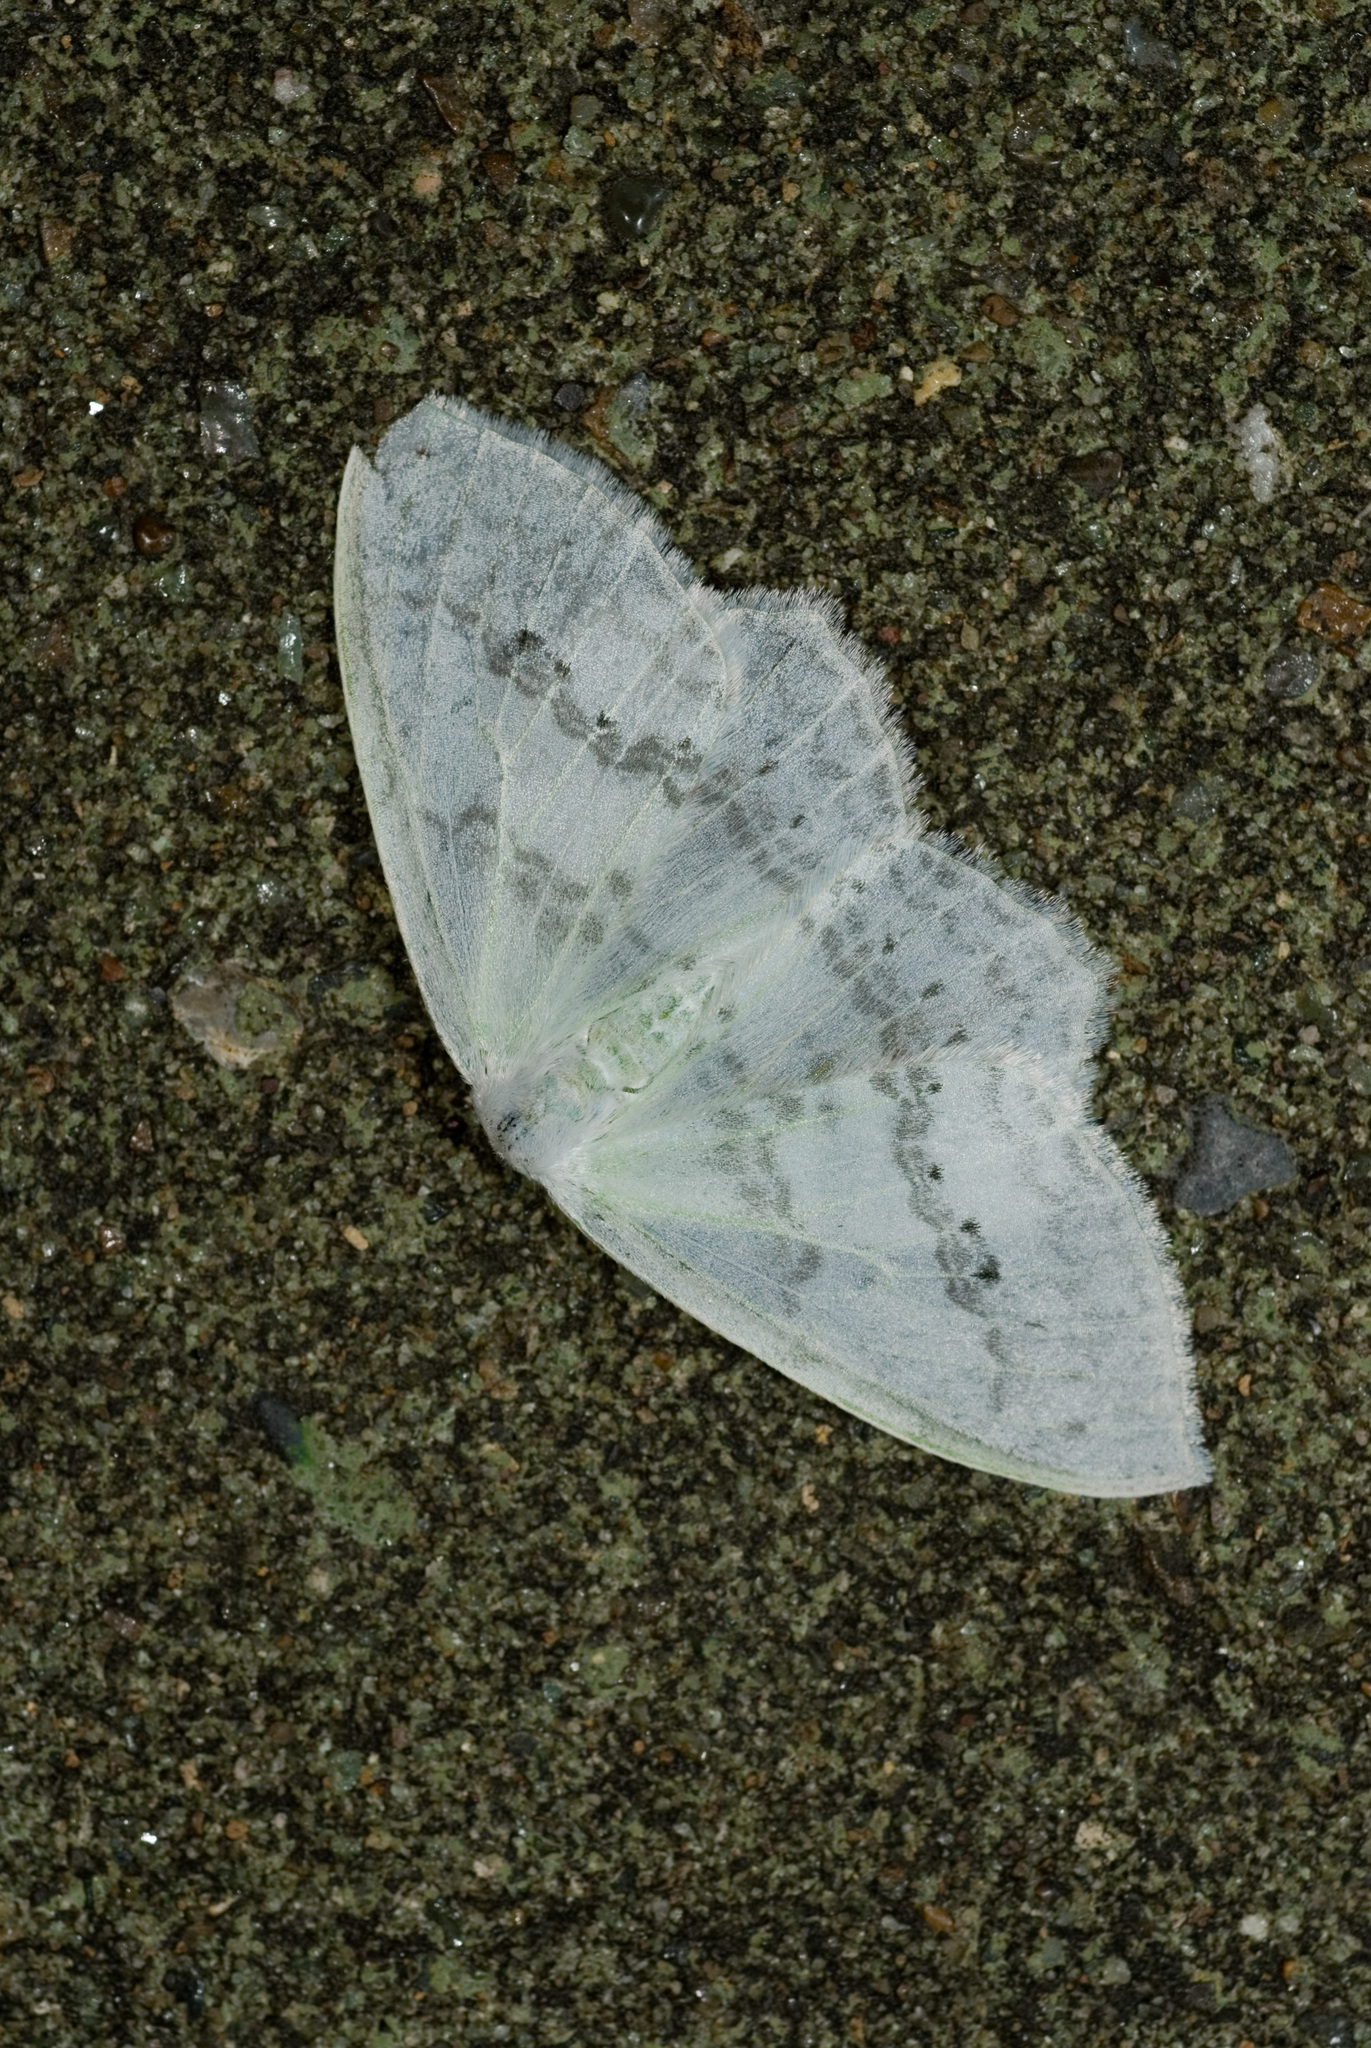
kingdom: Animalia
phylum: Arthropoda
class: Insecta
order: Lepidoptera
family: Drepanidae
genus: Auzata
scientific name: Auzata simpliciata
